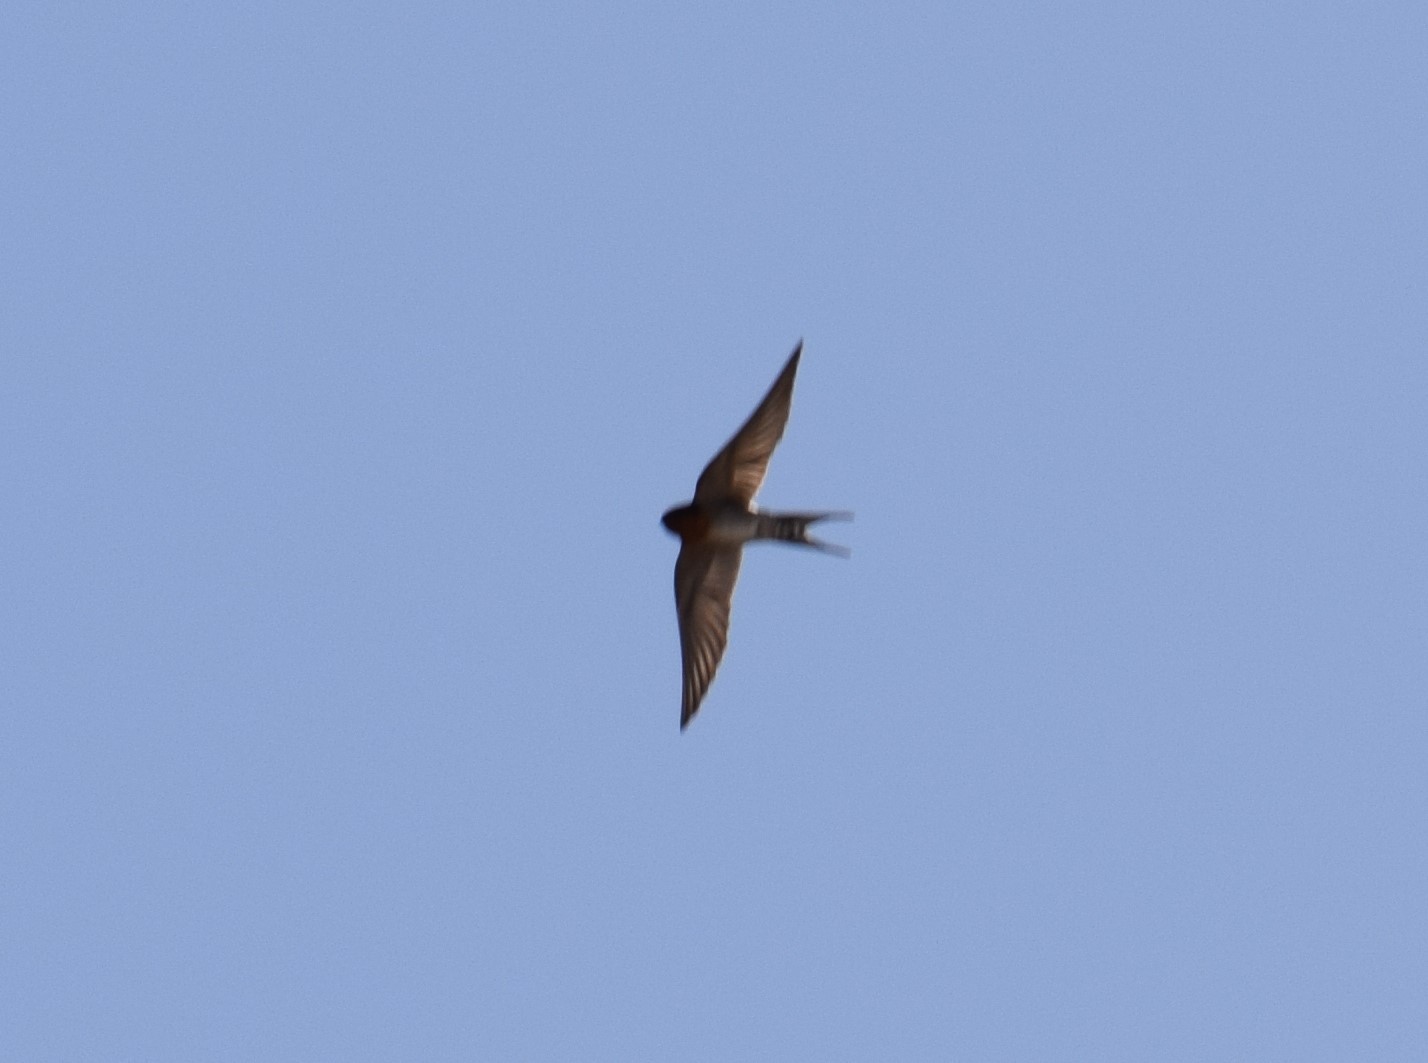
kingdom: Animalia
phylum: Chordata
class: Aves
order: Passeriformes
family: Hirundinidae
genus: Hirundo
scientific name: Hirundo neoxena
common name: Welcome swallow
